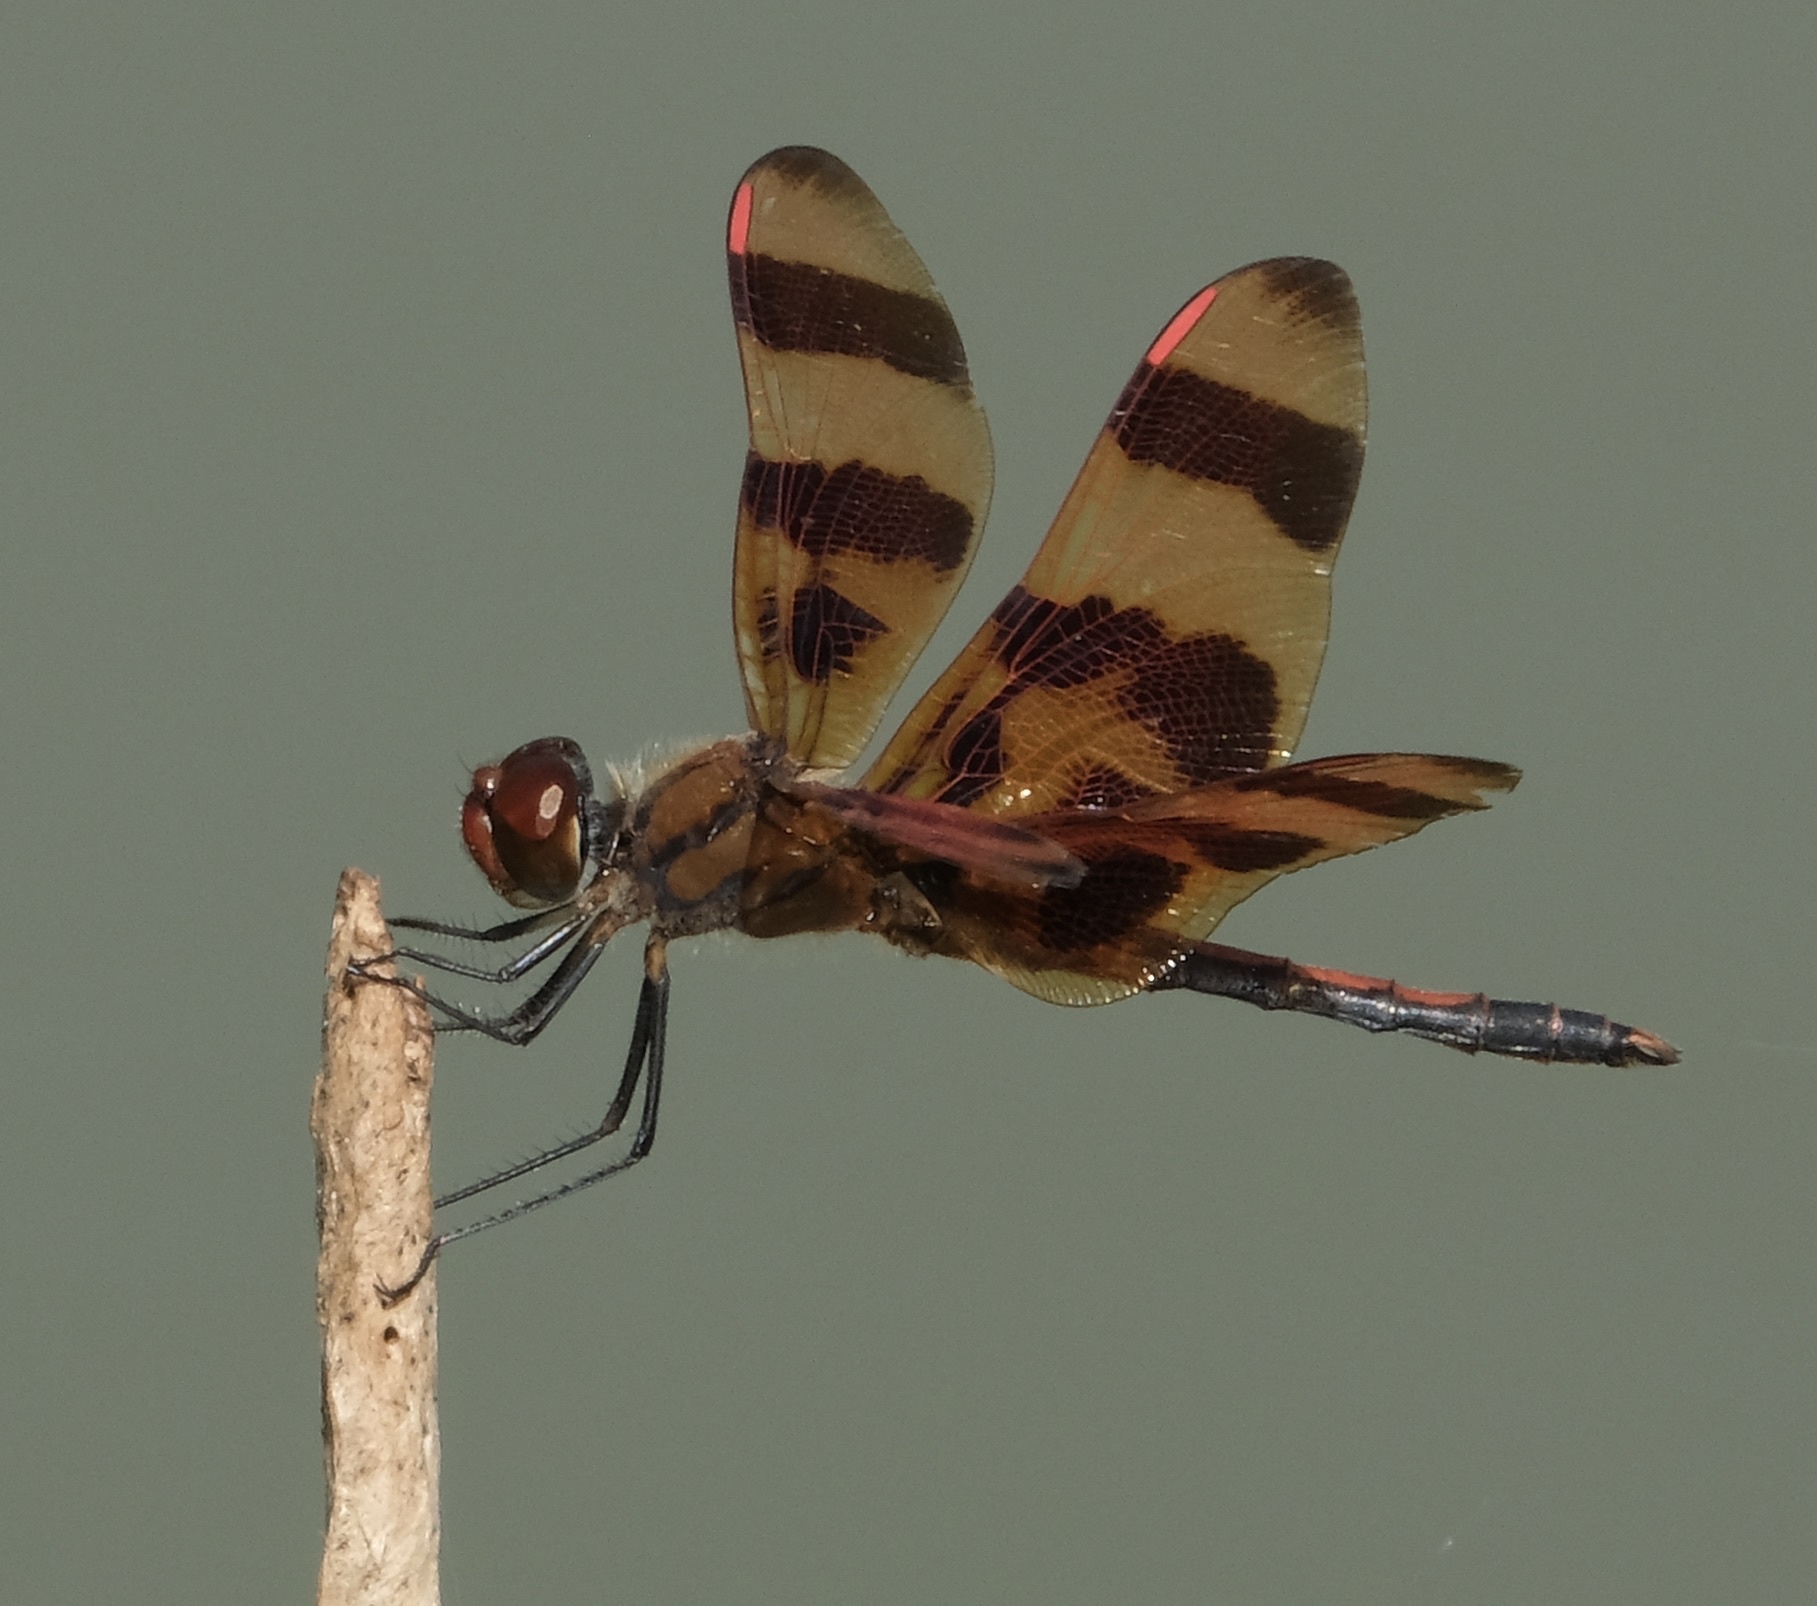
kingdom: Animalia
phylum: Arthropoda
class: Insecta
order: Odonata
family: Libellulidae
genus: Celithemis
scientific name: Celithemis eponina
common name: Halloween pennant
